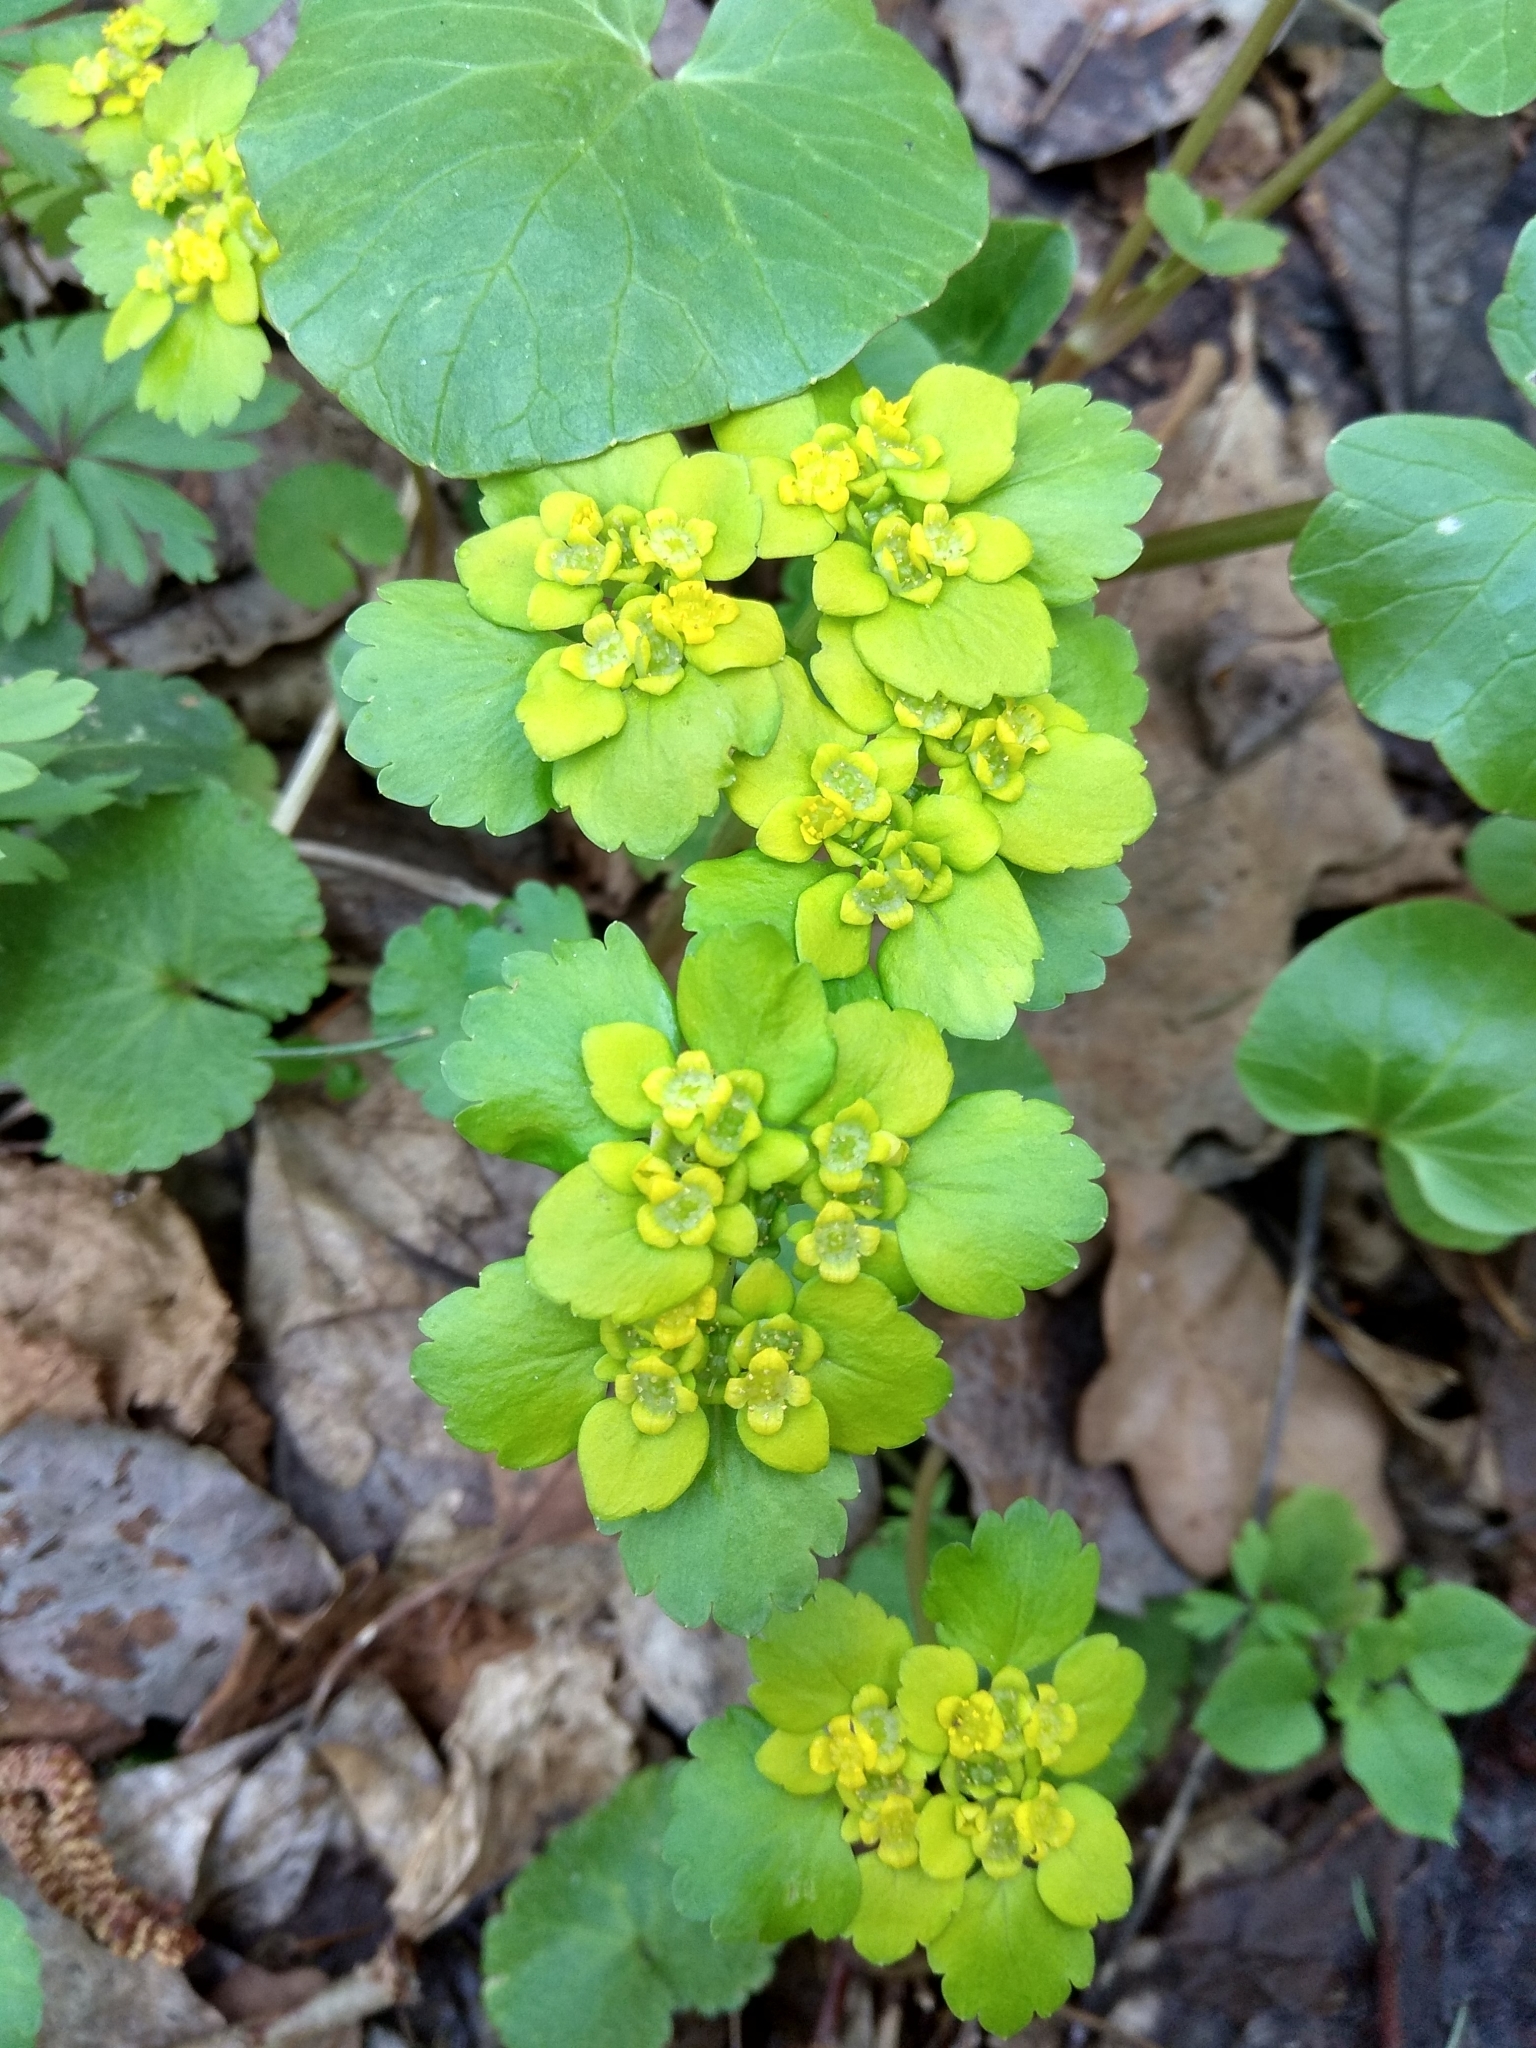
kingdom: Plantae
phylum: Tracheophyta
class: Magnoliopsida
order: Saxifragales
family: Saxifragaceae
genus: Chrysosplenium
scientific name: Chrysosplenium alternifolium
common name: Alternate-leaved golden-saxifrage
